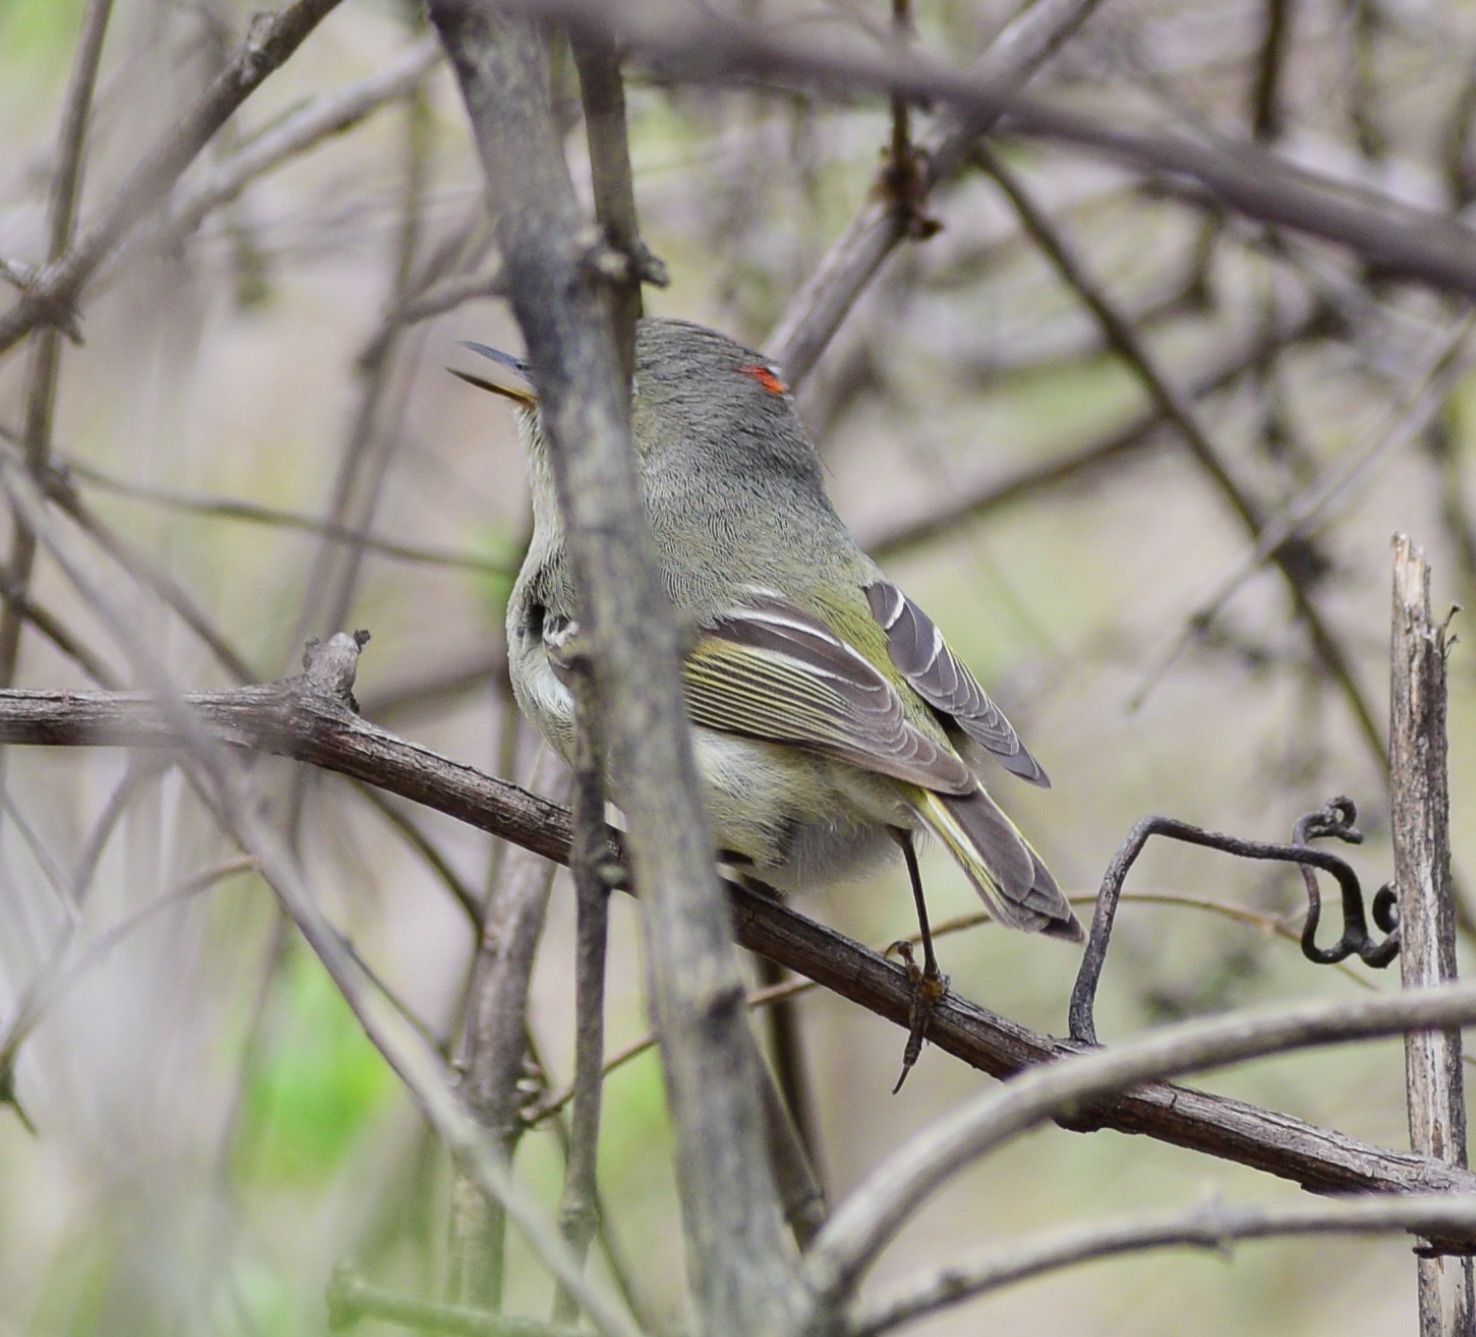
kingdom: Animalia
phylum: Chordata
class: Aves
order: Passeriformes
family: Regulidae
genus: Regulus
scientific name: Regulus calendula
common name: Ruby-crowned kinglet
